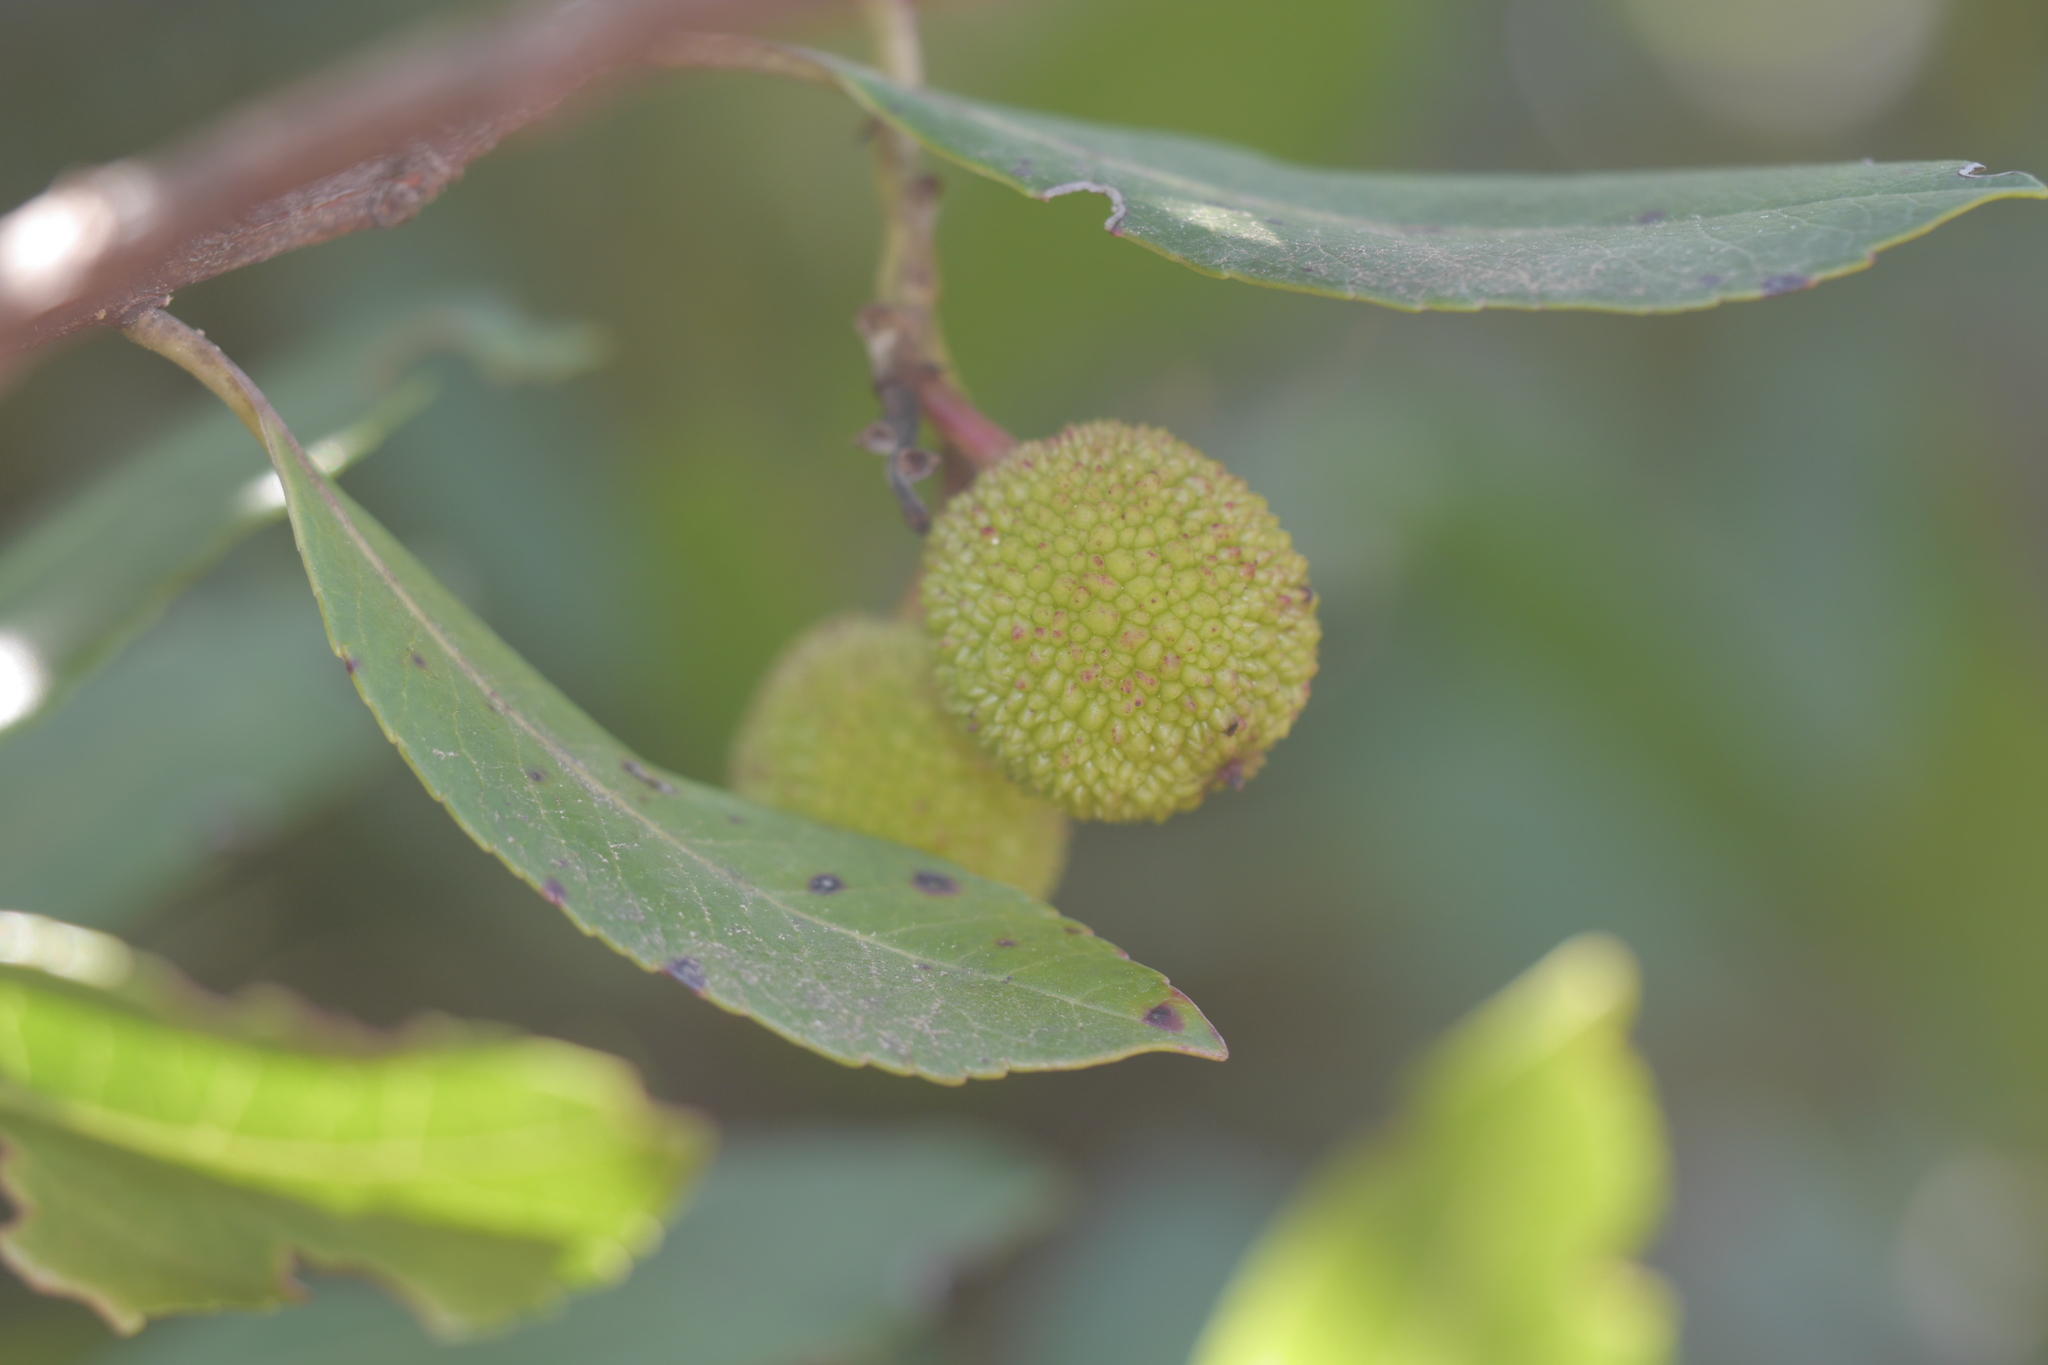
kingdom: Plantae
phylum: Tracheophyta
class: Magnoliopsida
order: Ericales
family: Ericaceae
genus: Arbutus
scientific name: Arbutus unedo
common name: Strawberry-tree
